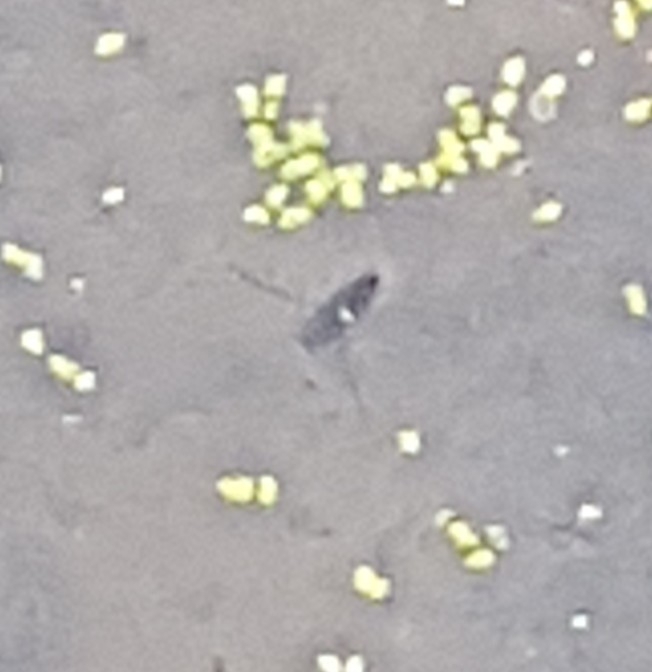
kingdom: Animalia
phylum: Arthropoda
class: Insecta
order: Hemiptera
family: Notonectidae
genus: Notonecta
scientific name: Notonecta
